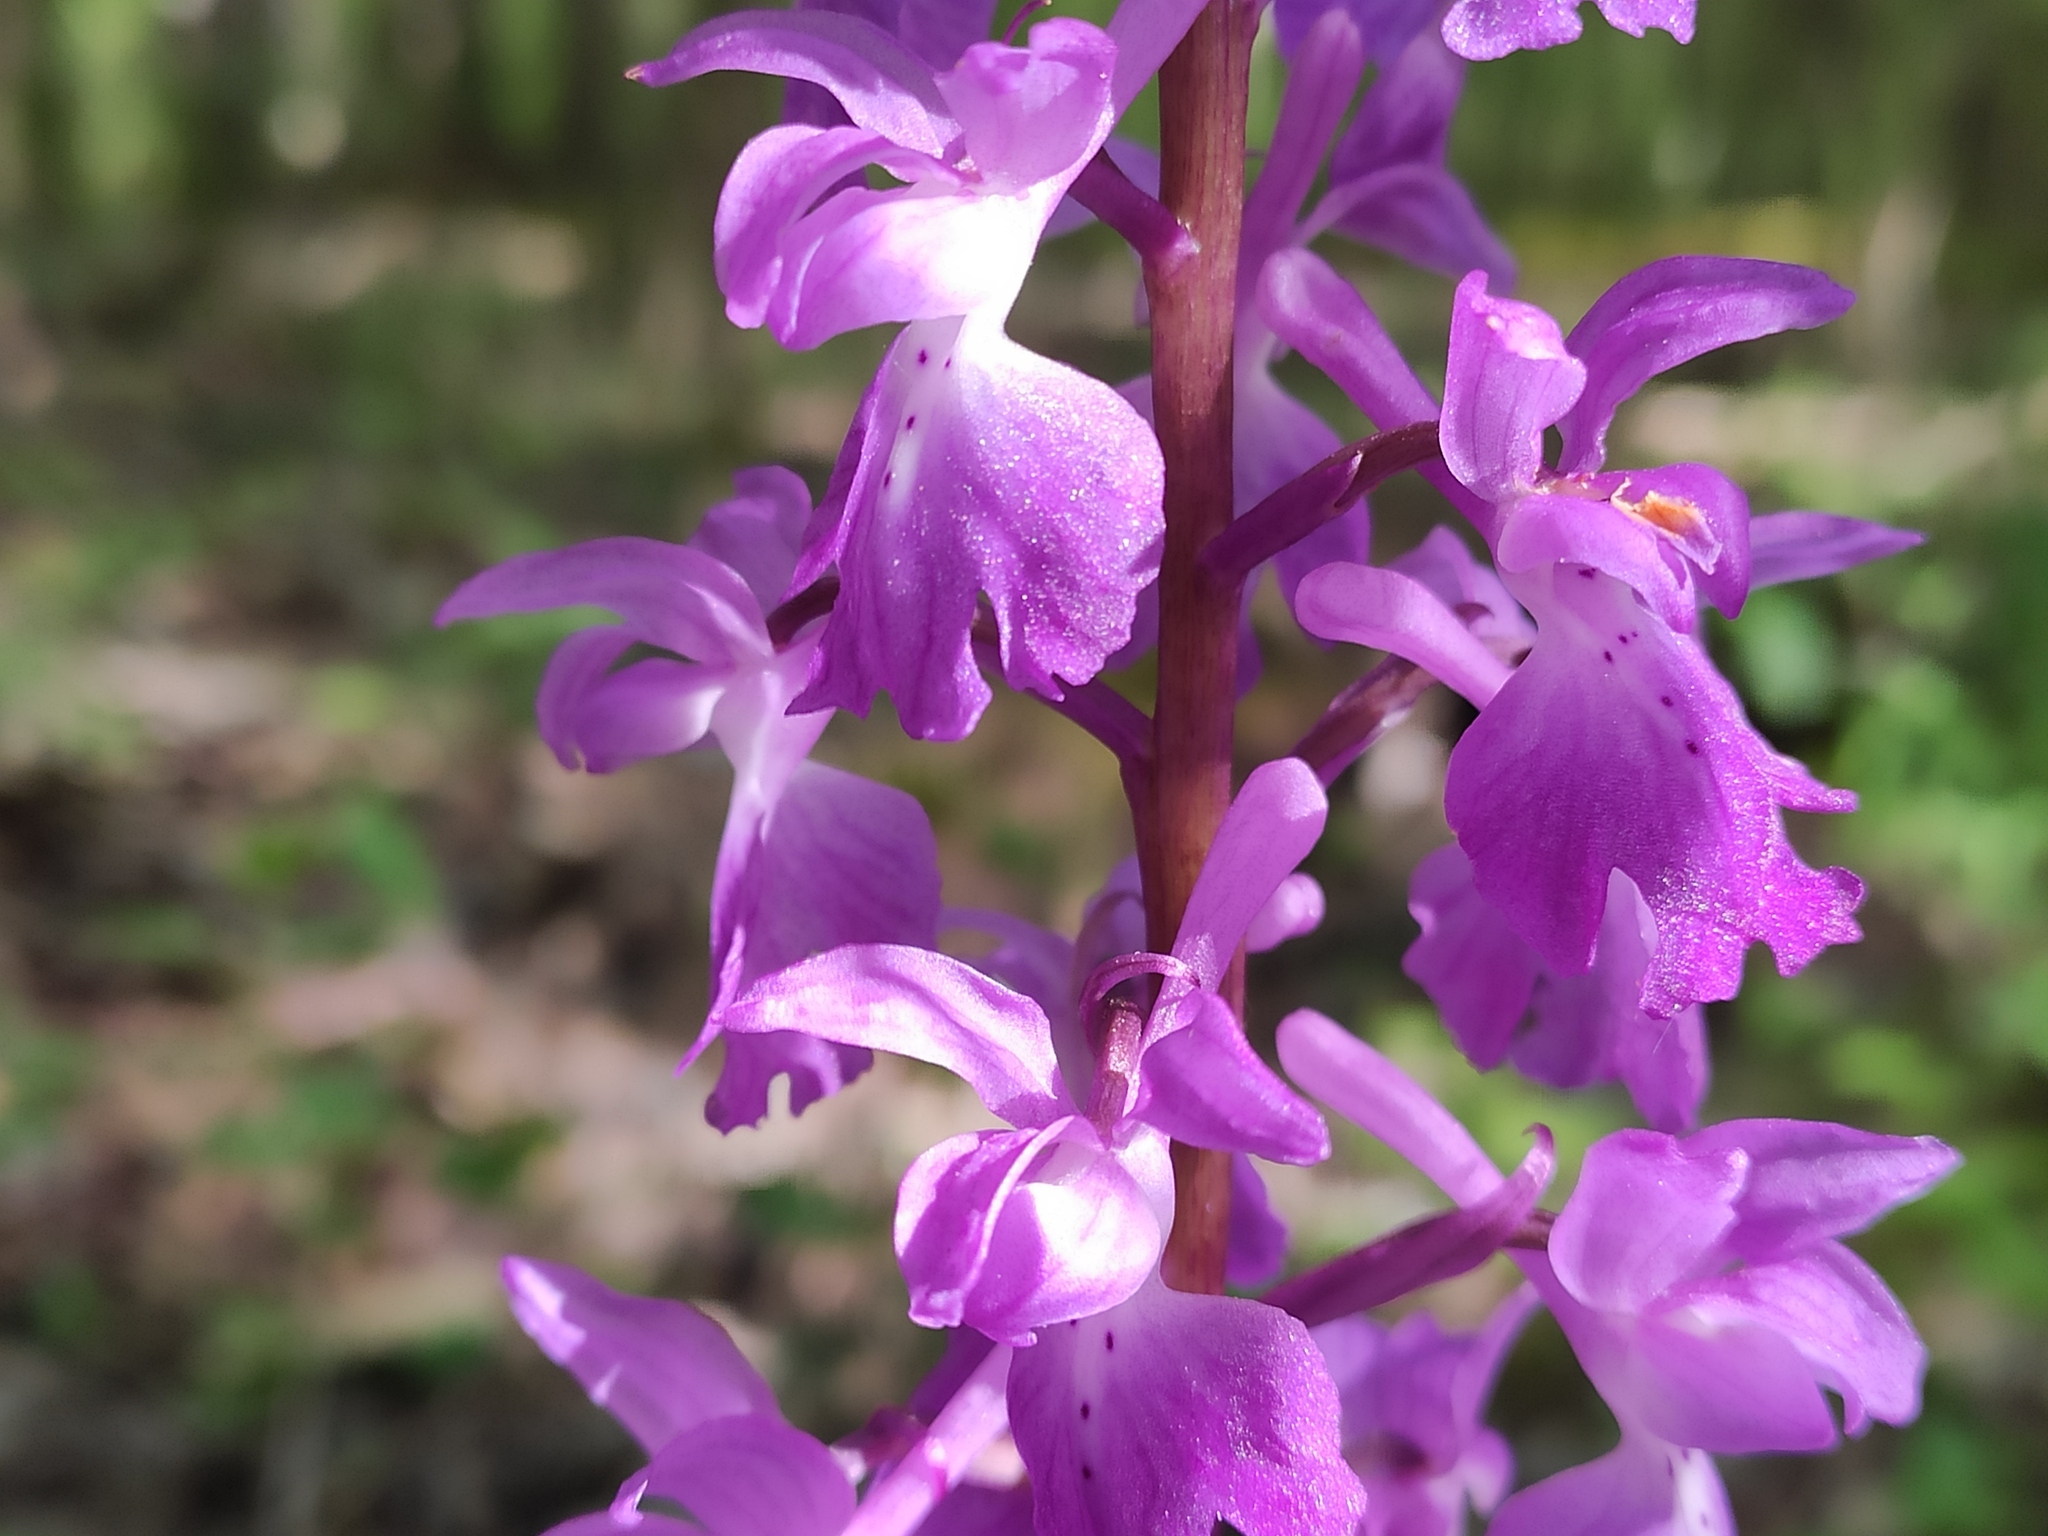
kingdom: Plantae
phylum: Tracheophyta
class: Liliopsida
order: Asparagales
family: Orchidaceae
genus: Orchis
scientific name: Orchis mascula
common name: Early-purple orchid
